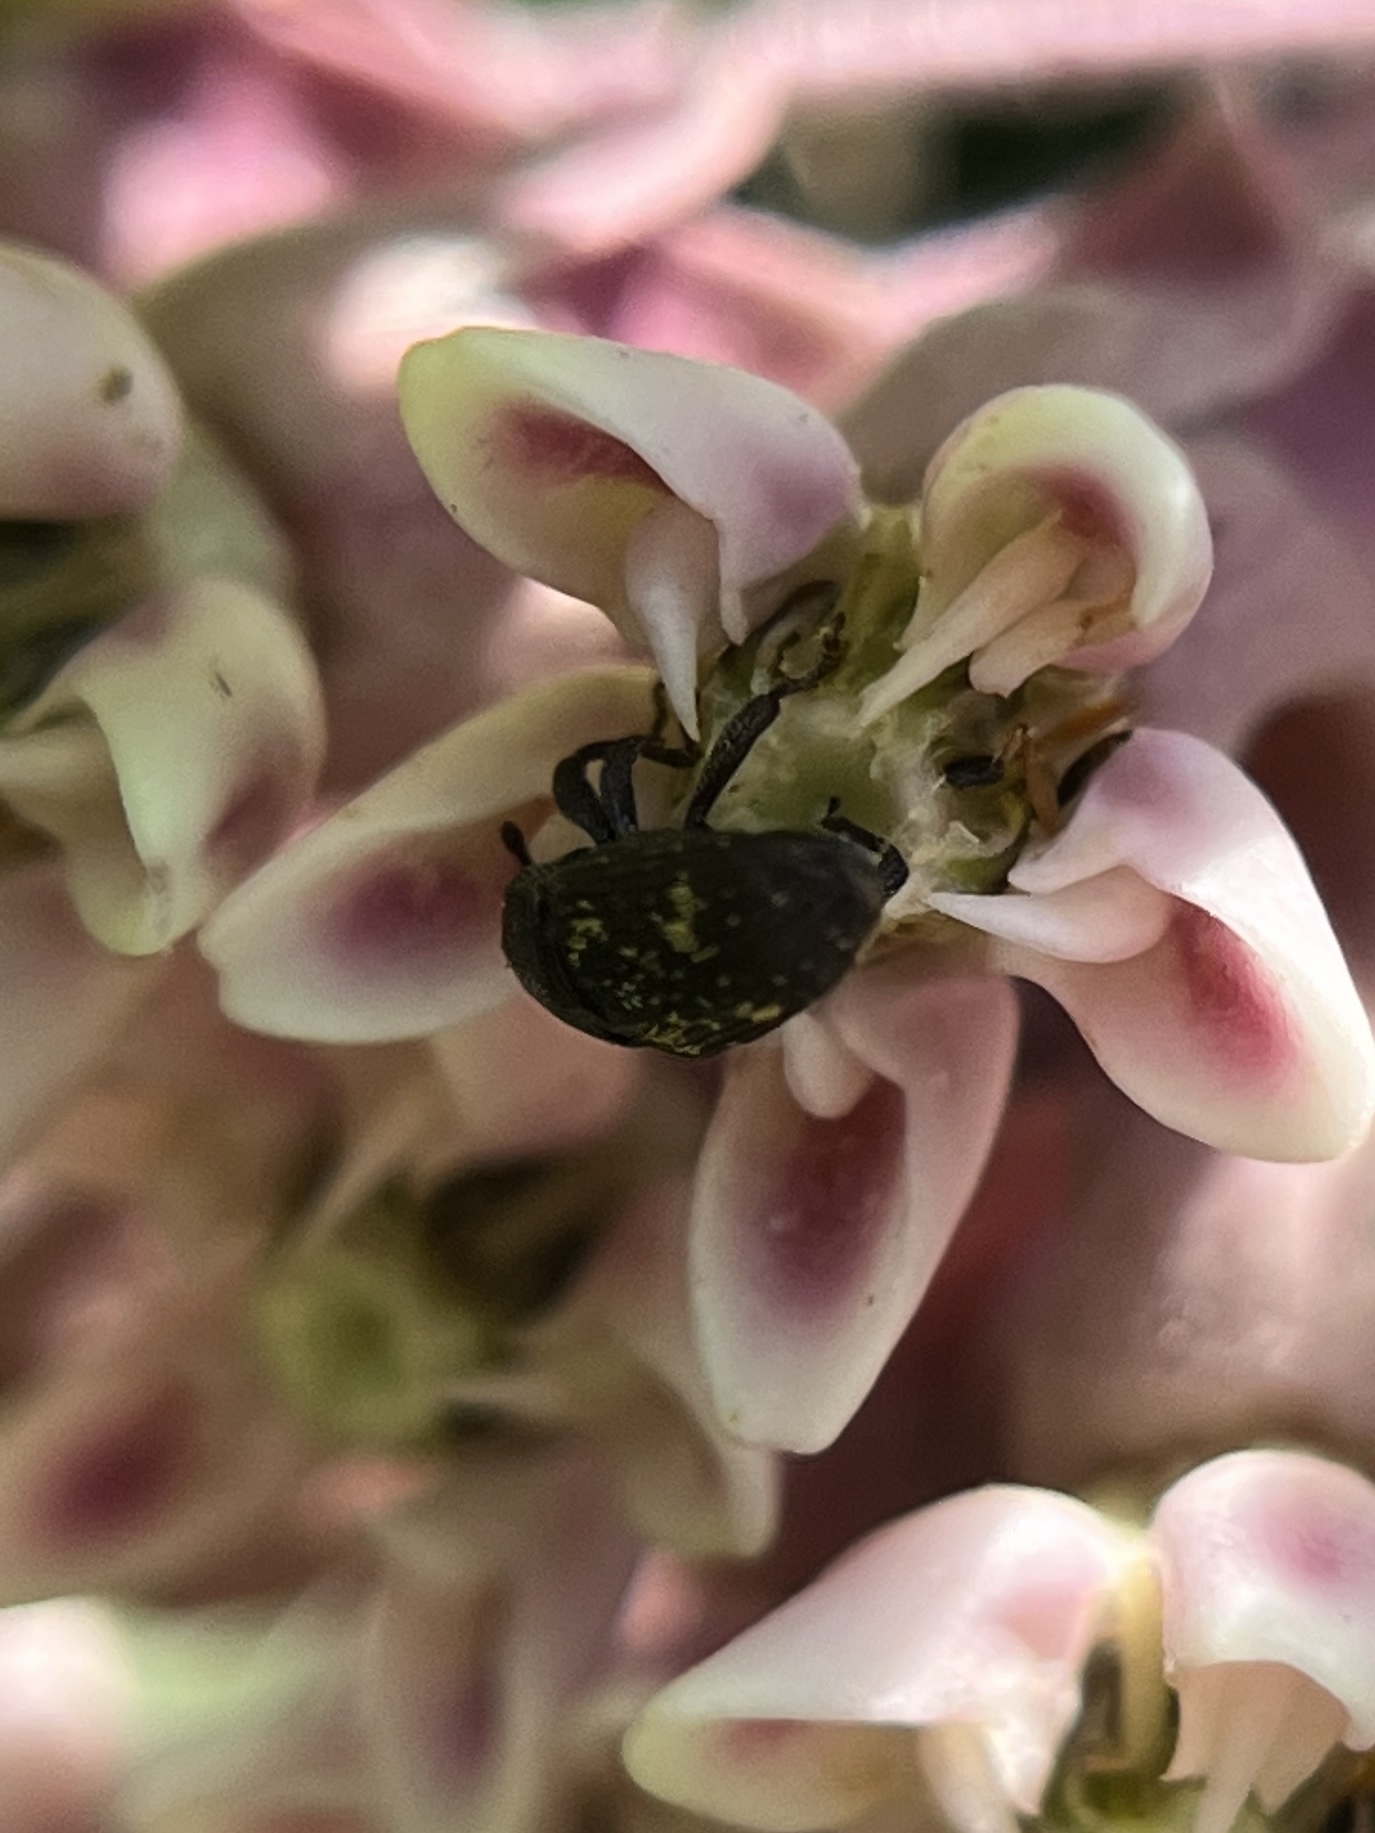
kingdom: Animalia
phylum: Arthropoda
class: Insecta
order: Coleoptera
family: Curculionidae
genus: Glyptobaris
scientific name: Glyptobaris lecontei
